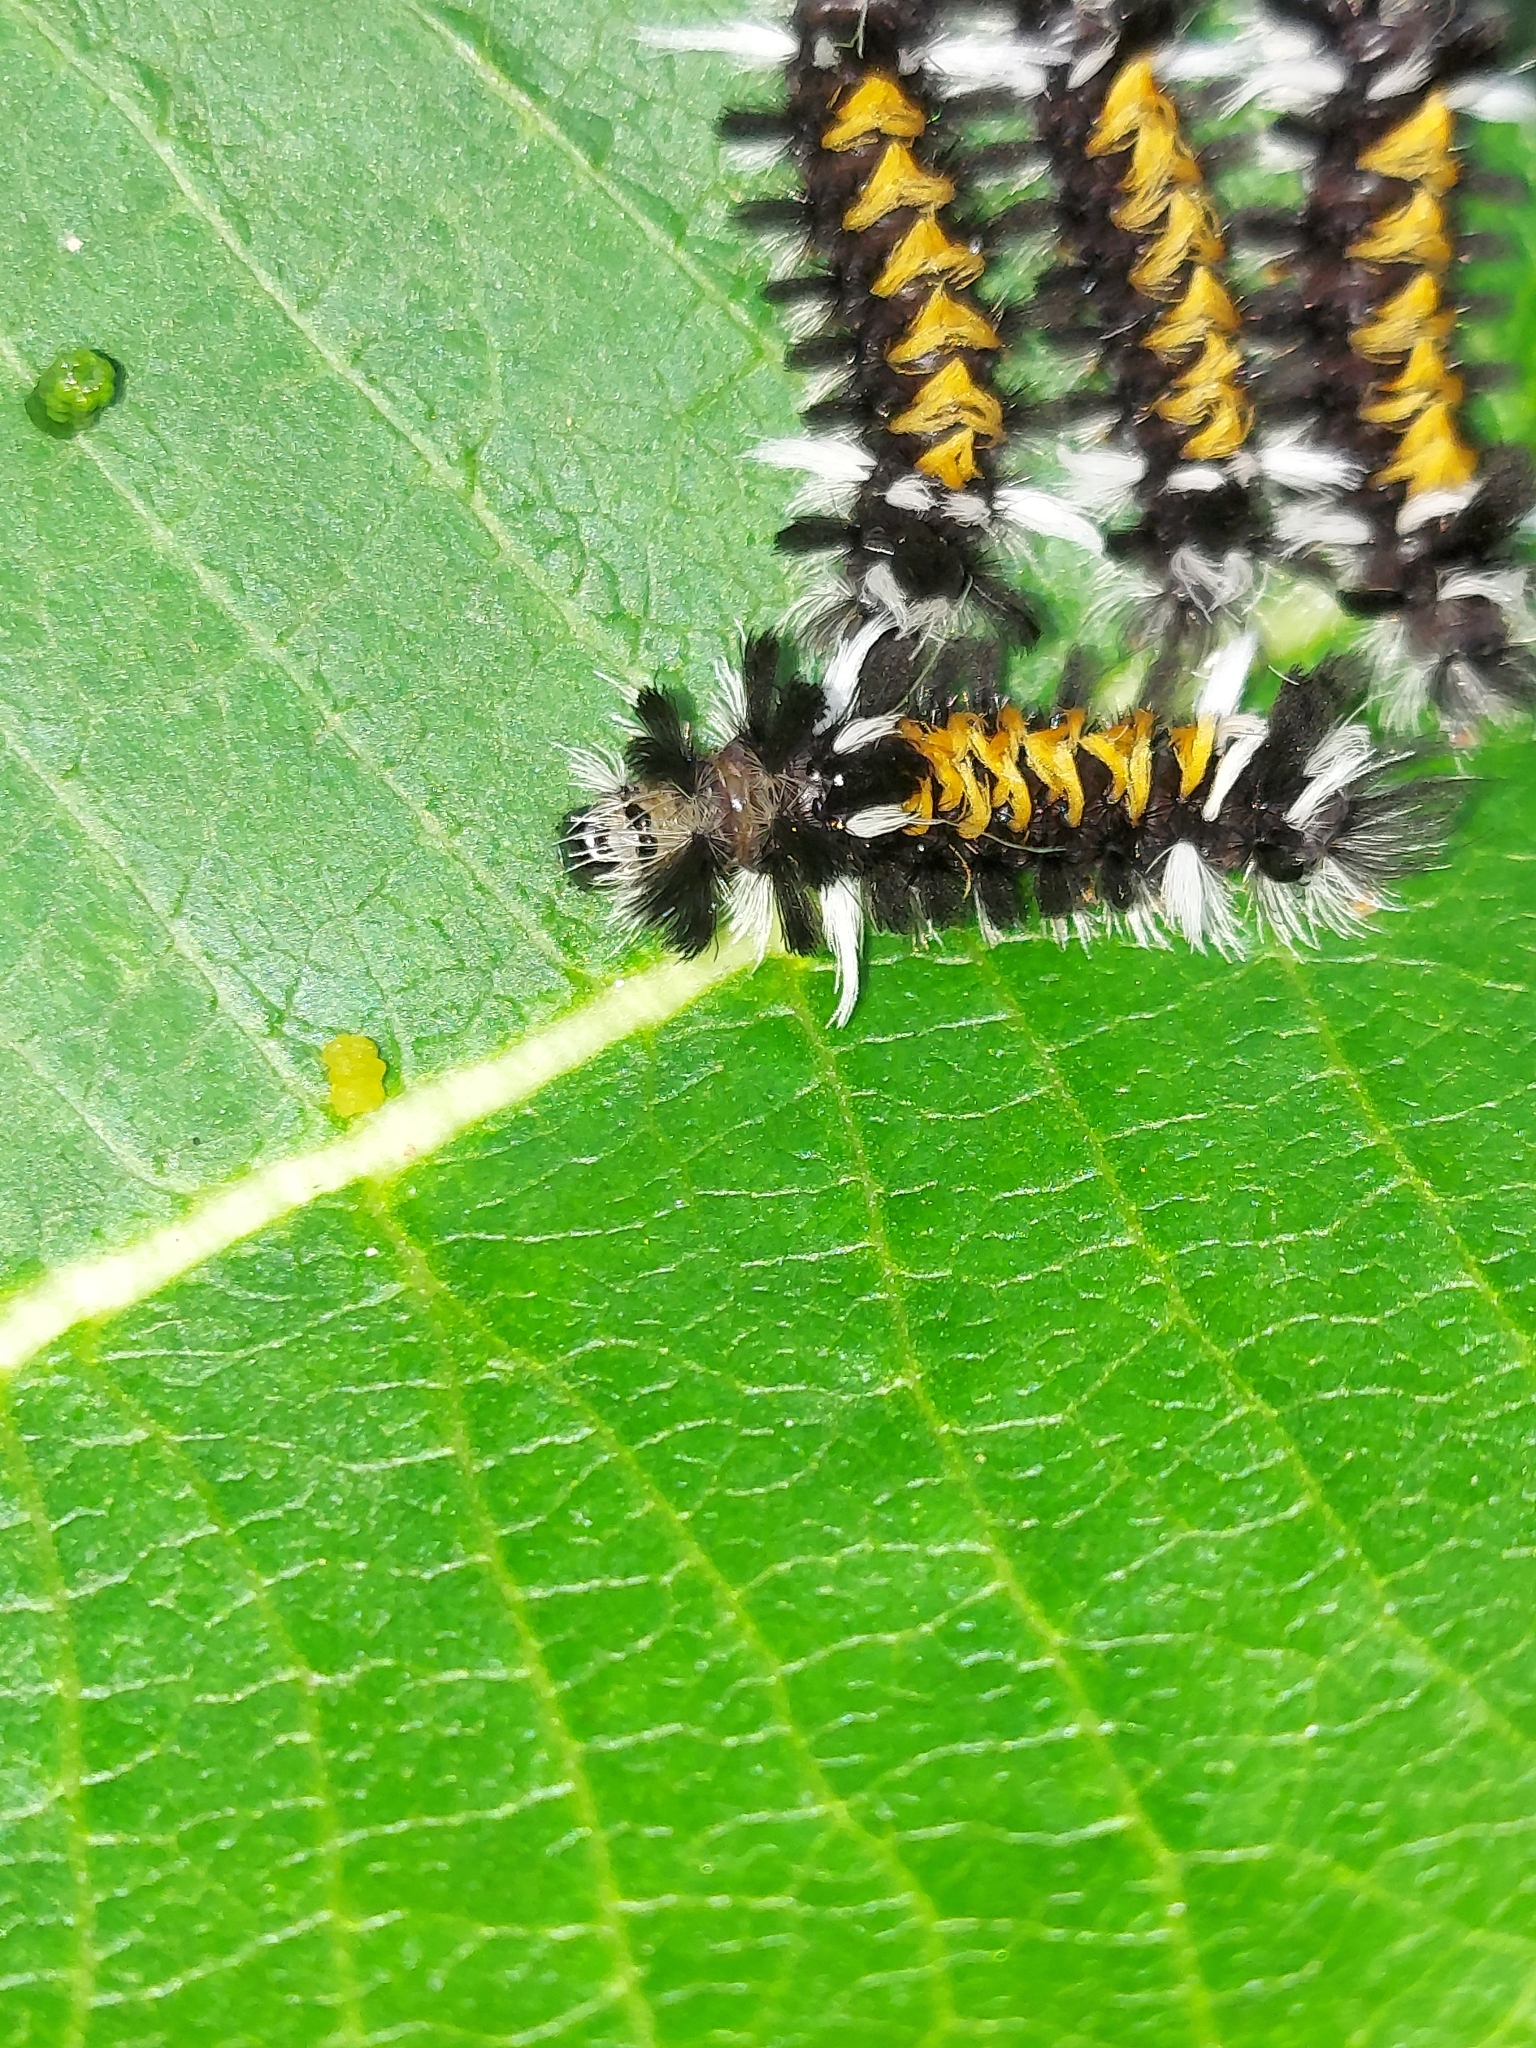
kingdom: Animalia
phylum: Arthropoda
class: Insecta
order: Lepidoptera
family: Erebidae
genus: Euchaetes
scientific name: Euchaetes egle
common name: Milkweed tussock moth
